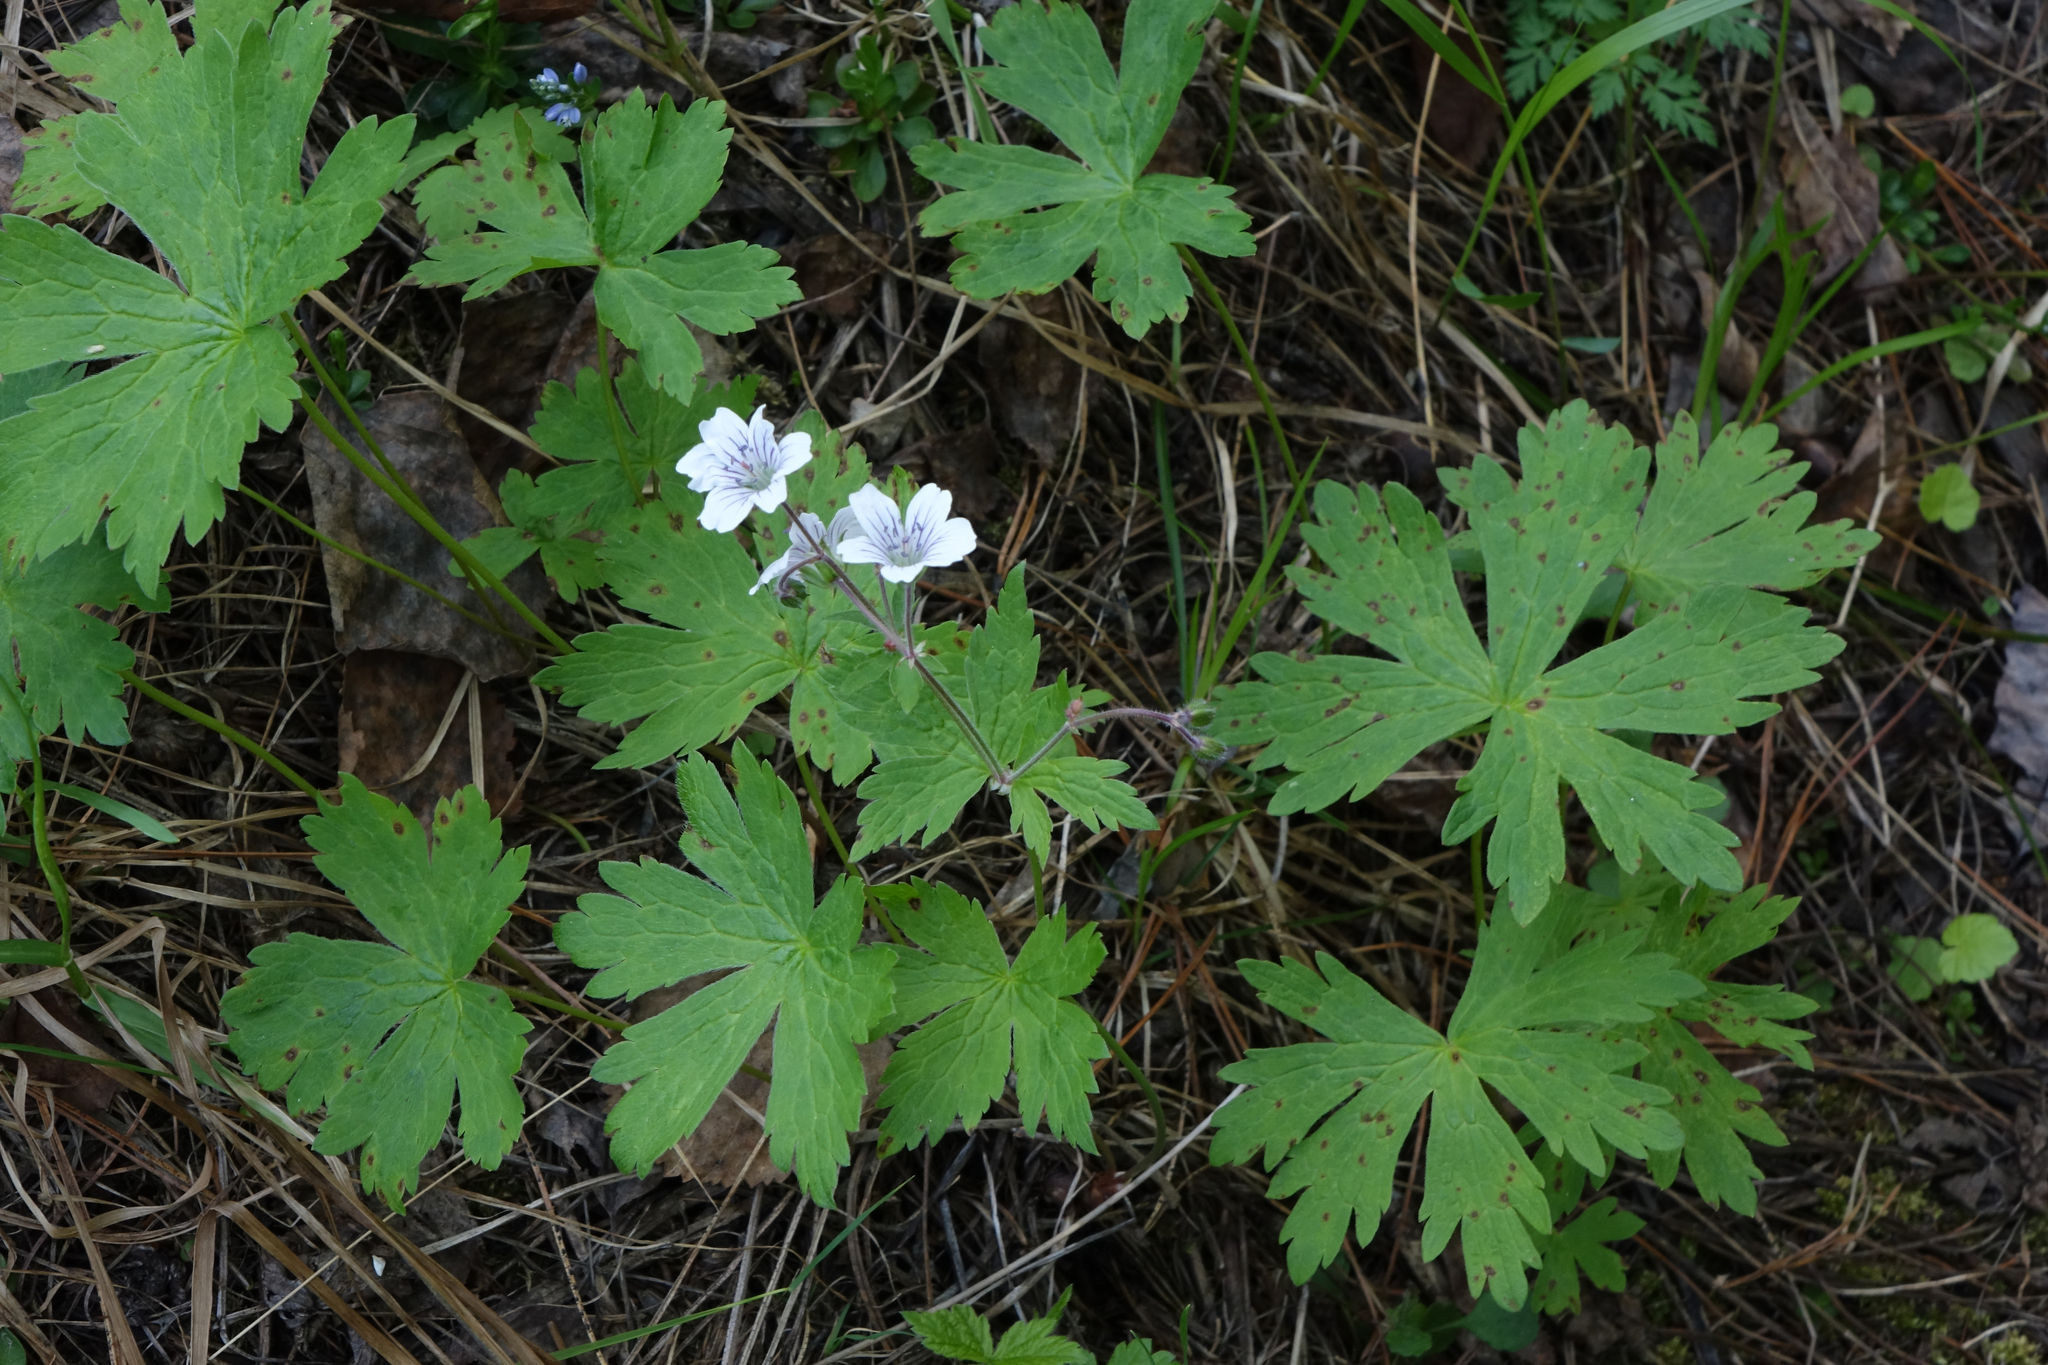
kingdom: Plantae
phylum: Tracheophyta
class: Magnoliopsida
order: Geraniales
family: Geraniaceae
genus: Geranium
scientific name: Geranium pseudosibiricum
